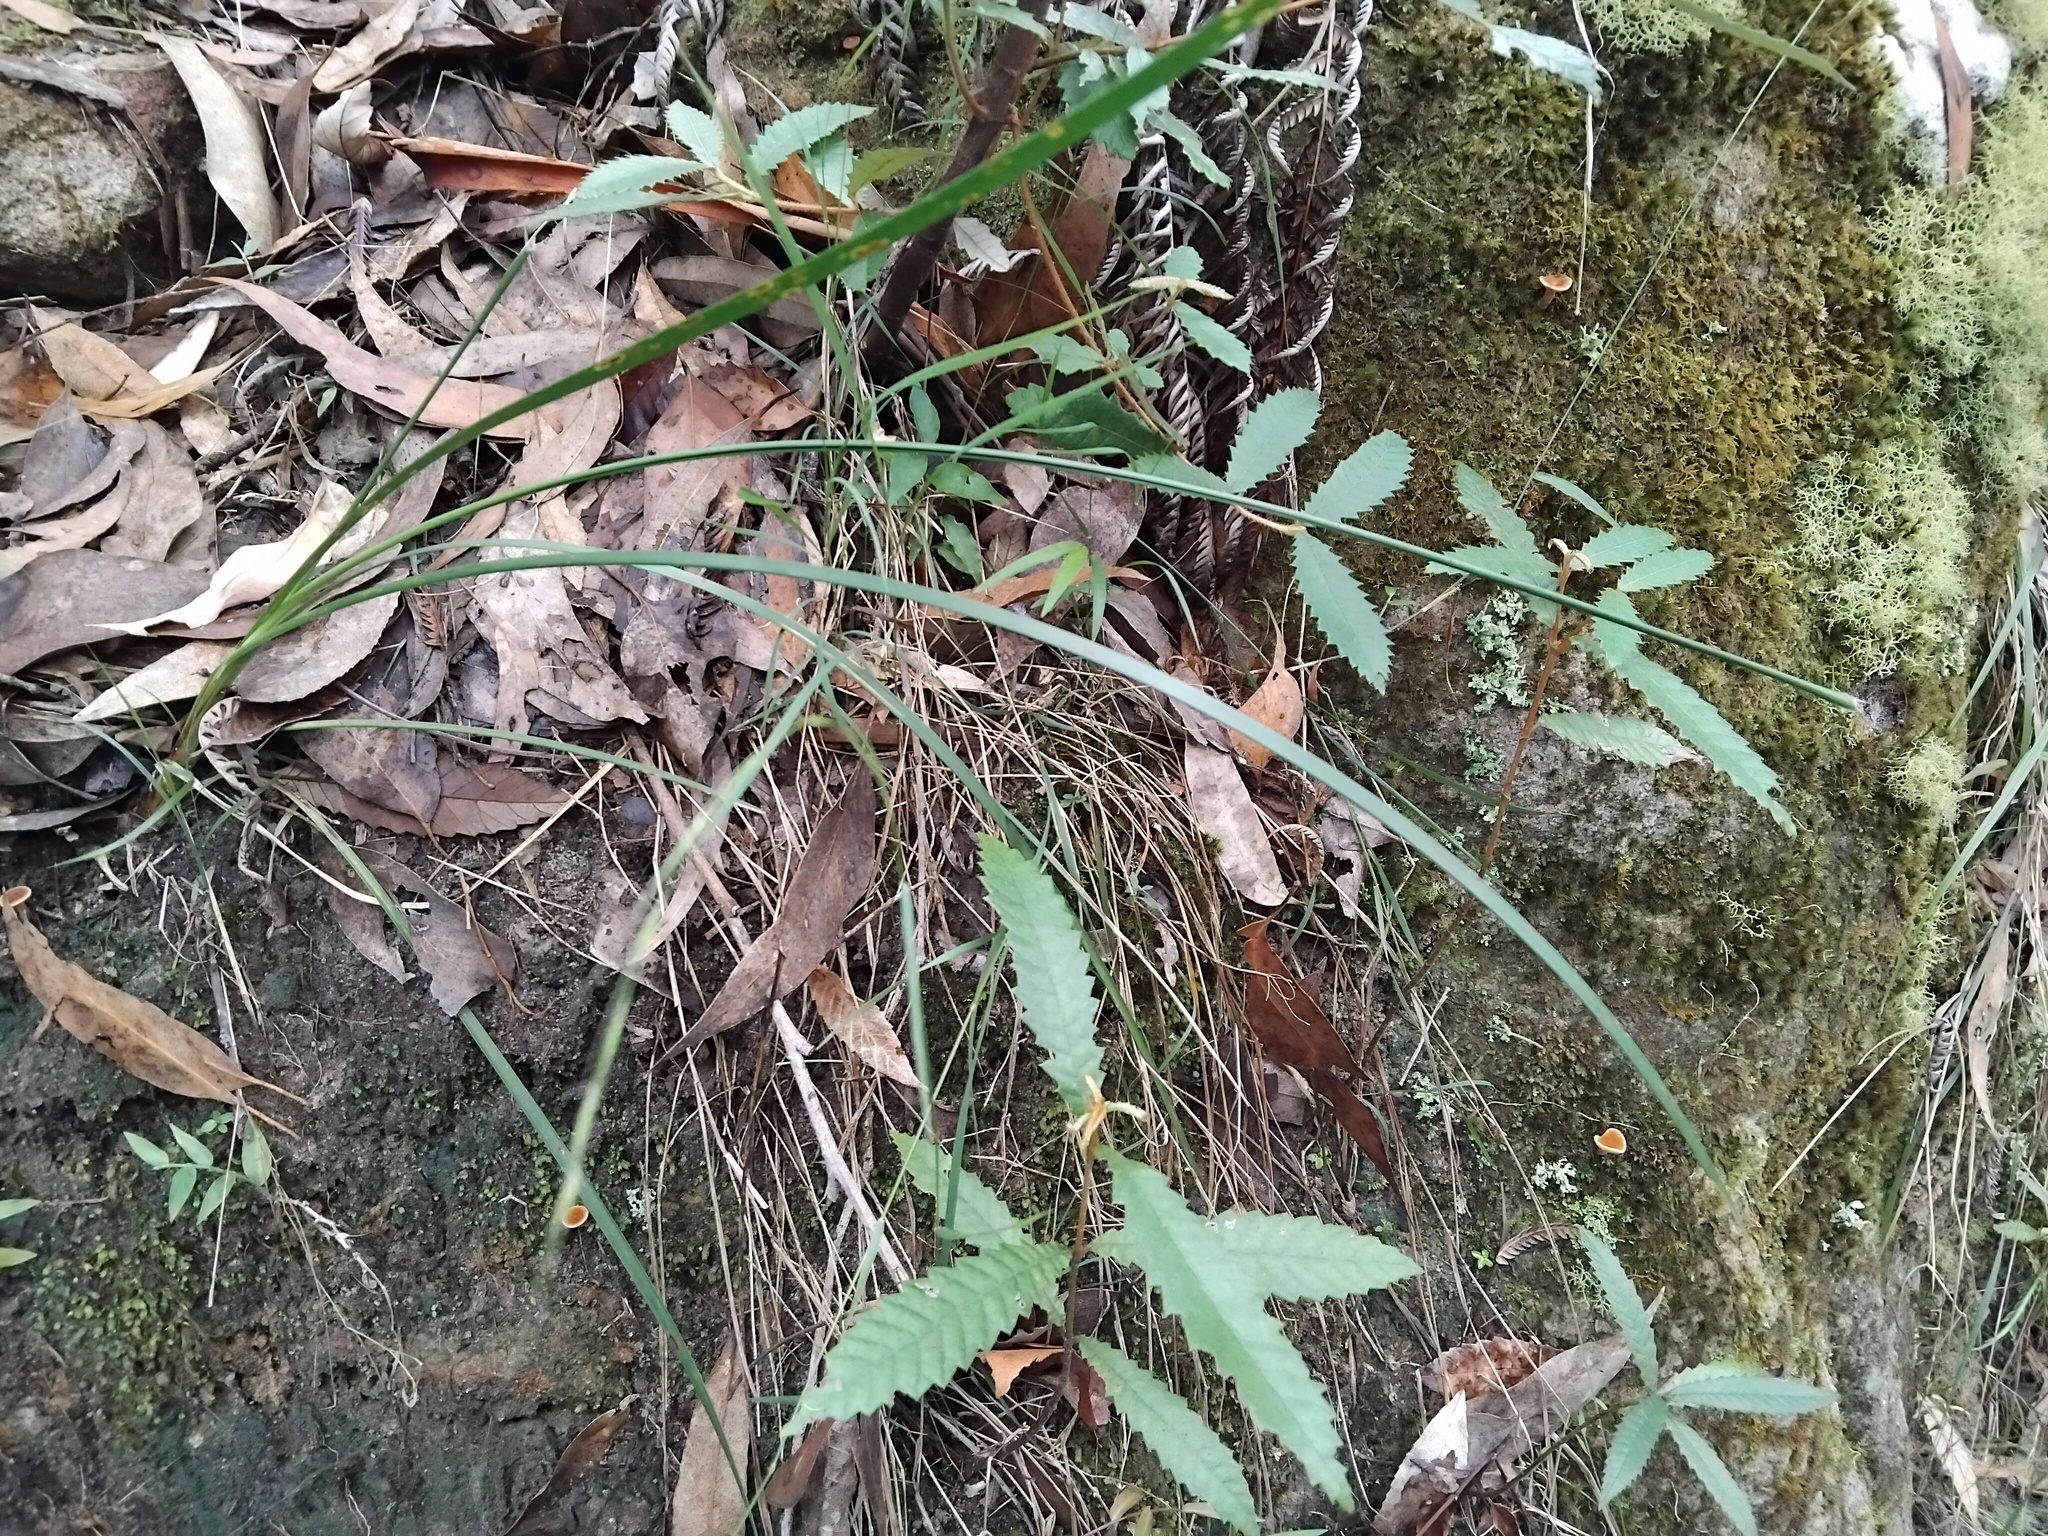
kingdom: Fungi
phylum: Basidiomycota
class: Agaricomycetes
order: Russulales
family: Russulaceae
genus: Lactarius
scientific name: Lactarius eucalypti
